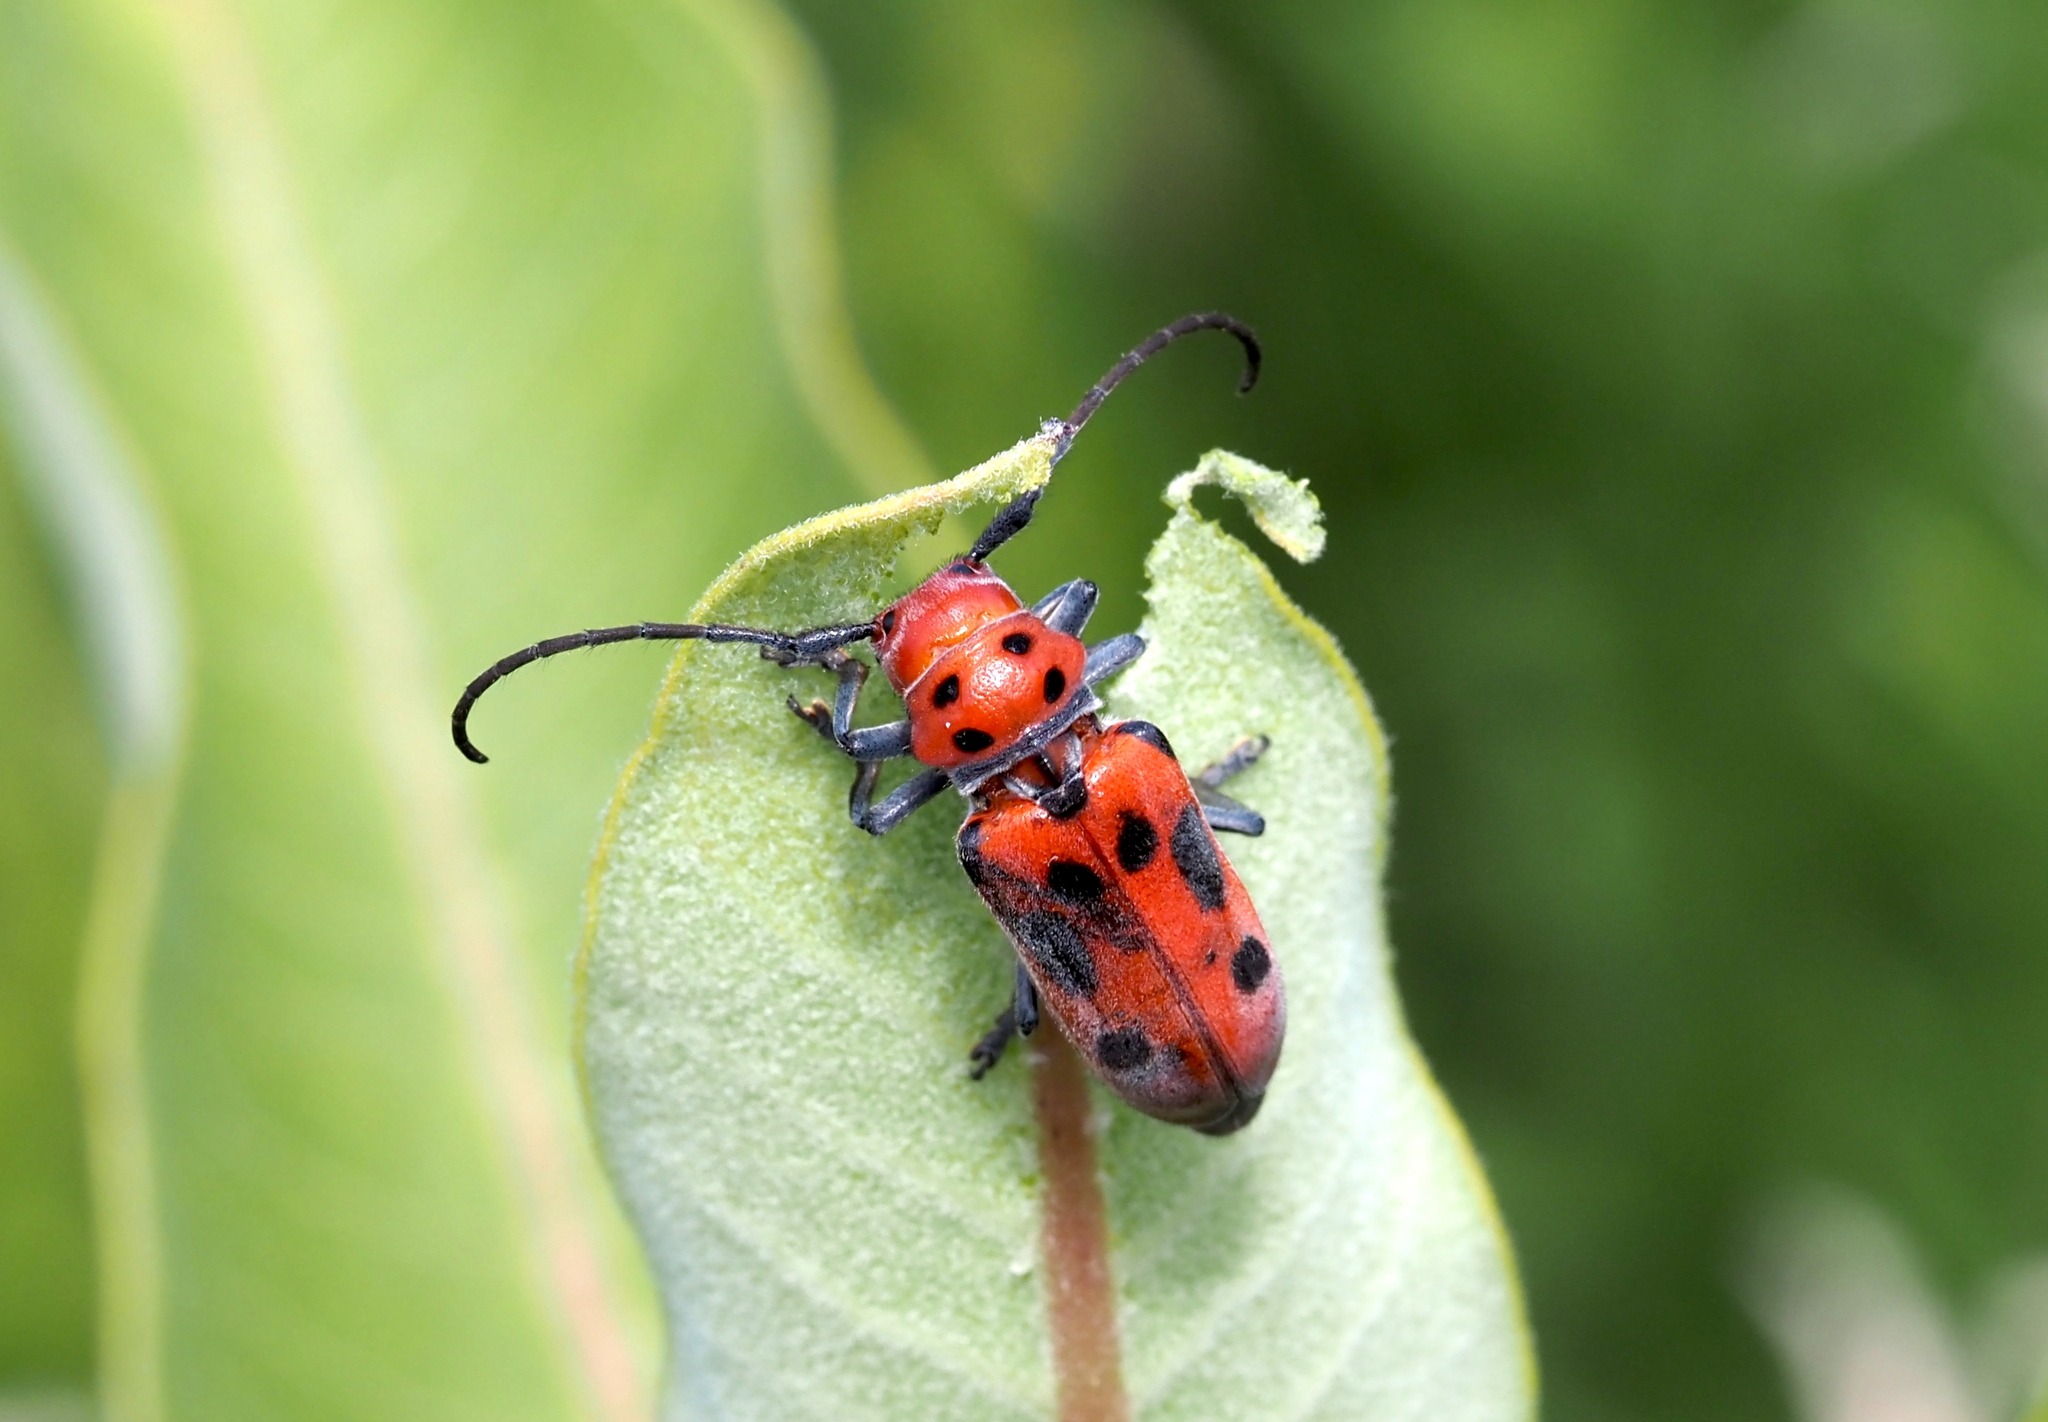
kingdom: Animalia
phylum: Arthropoda
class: Insecta
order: Coleoptera
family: Cerambycidae
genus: Tetraopes
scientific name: Tetraopes tetrophthalmus
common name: Red milkweed beetle
